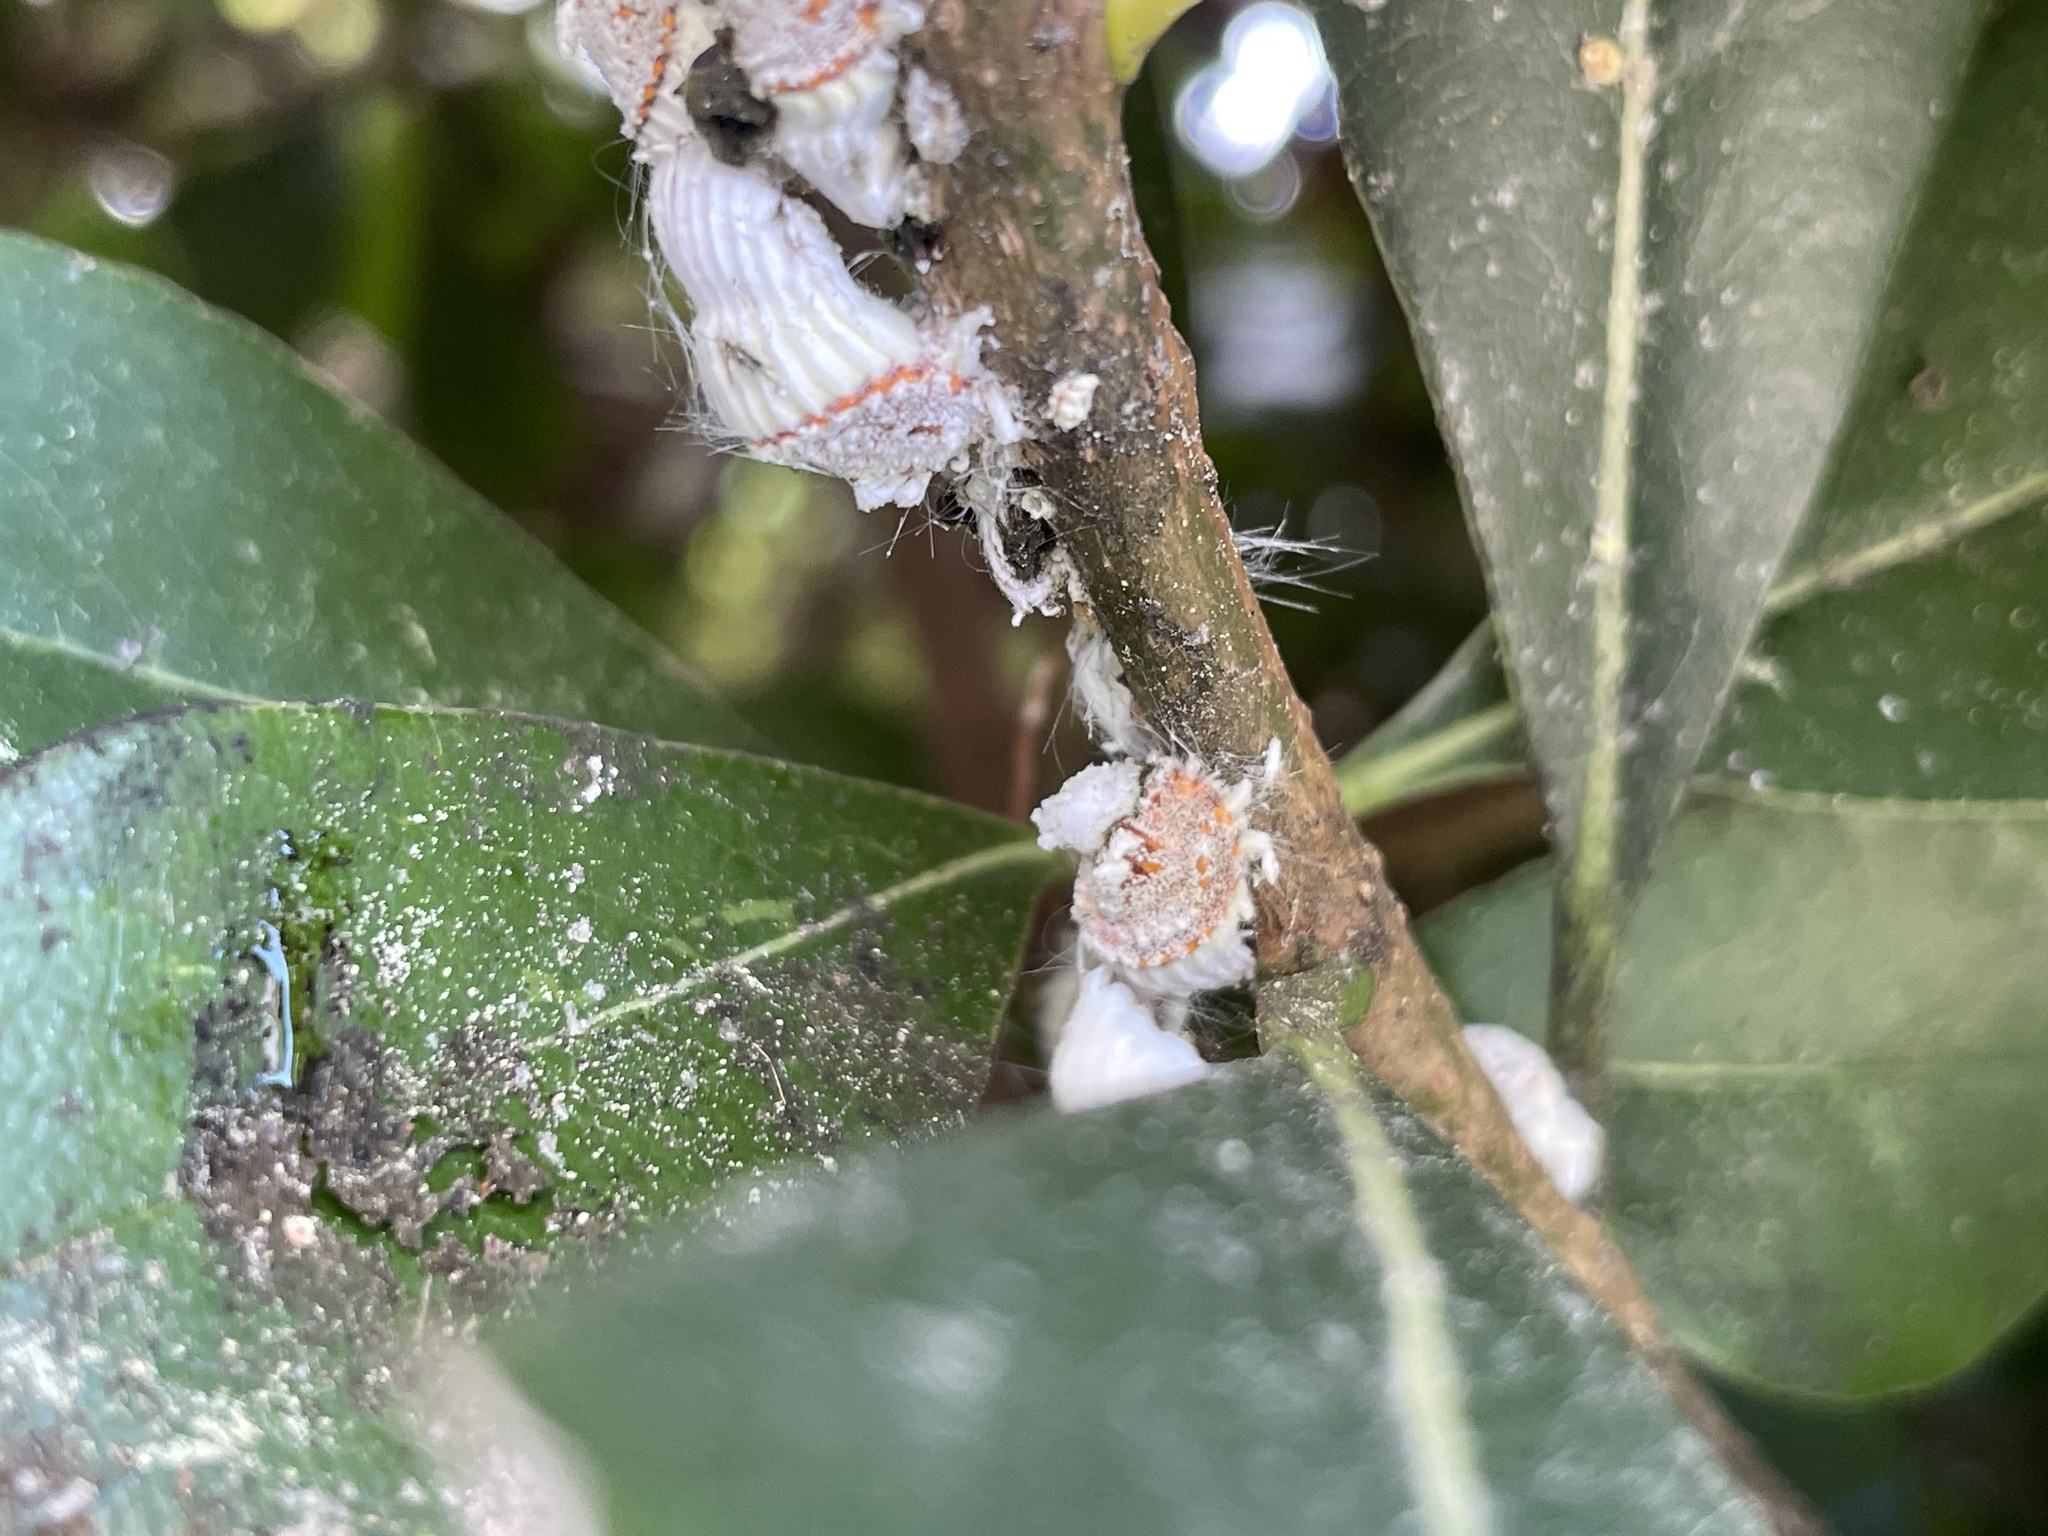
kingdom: Animalia
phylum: Arthropoda
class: Insecta
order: Hemiptera
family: Margarodidae
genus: Icerya
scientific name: Icerya purchasi
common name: Cottony cushion scale
